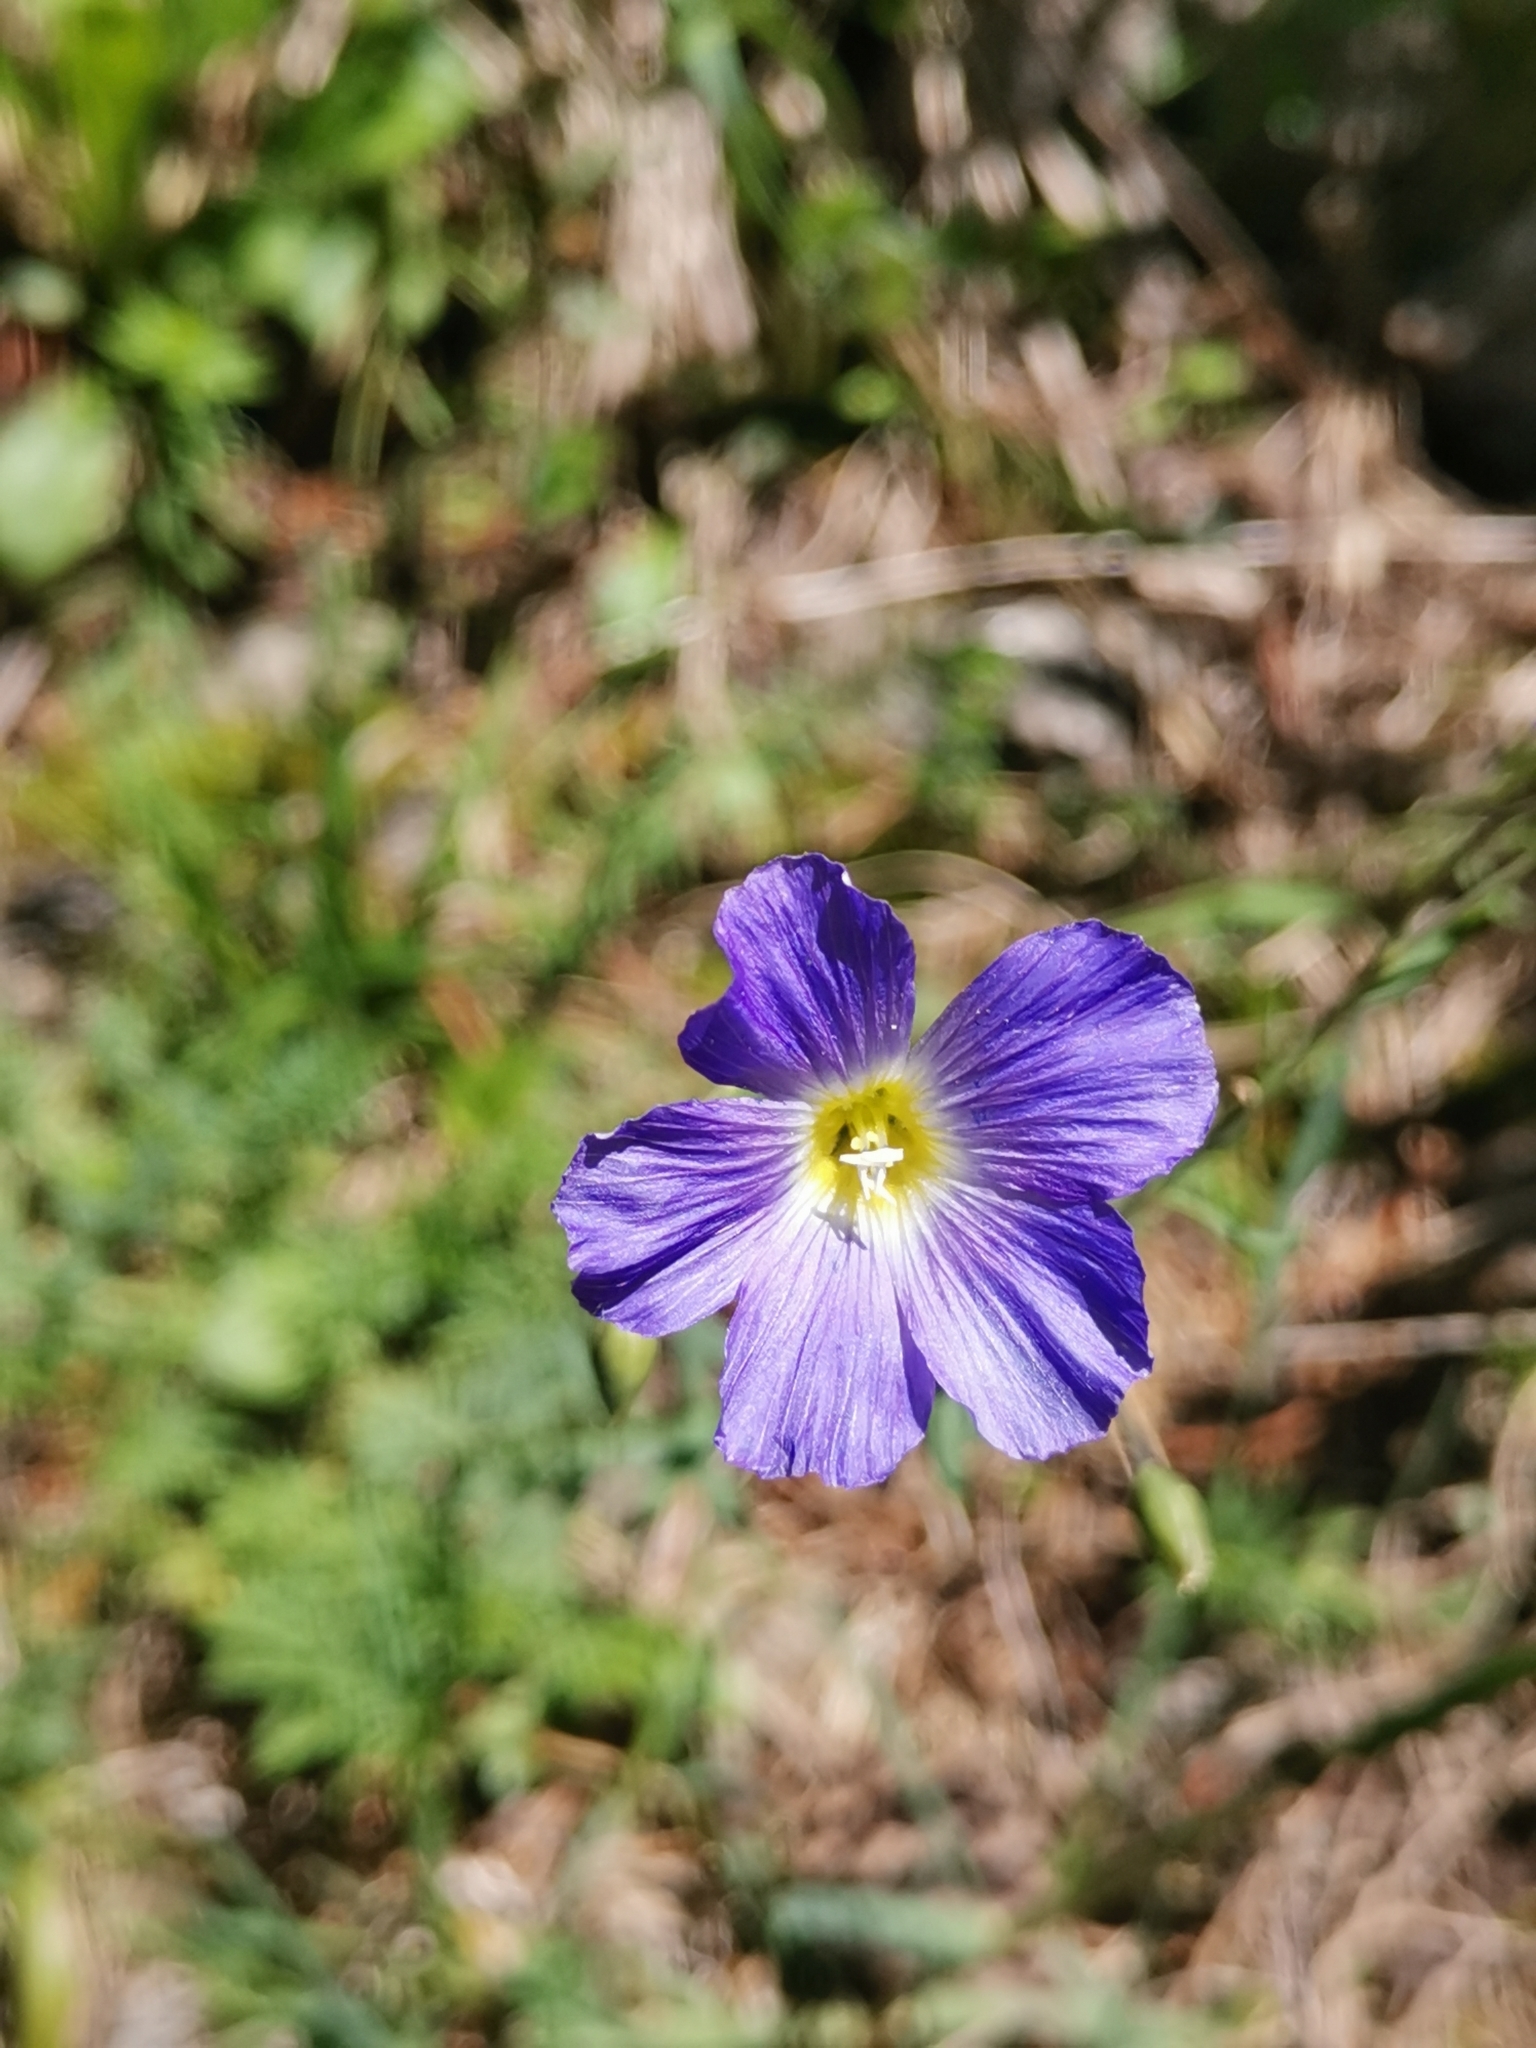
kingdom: Plantae
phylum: Tracheophyta
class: Magnoliopsida
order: Malpighiales
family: Linaceae
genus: Linum
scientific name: Linum alpinum
